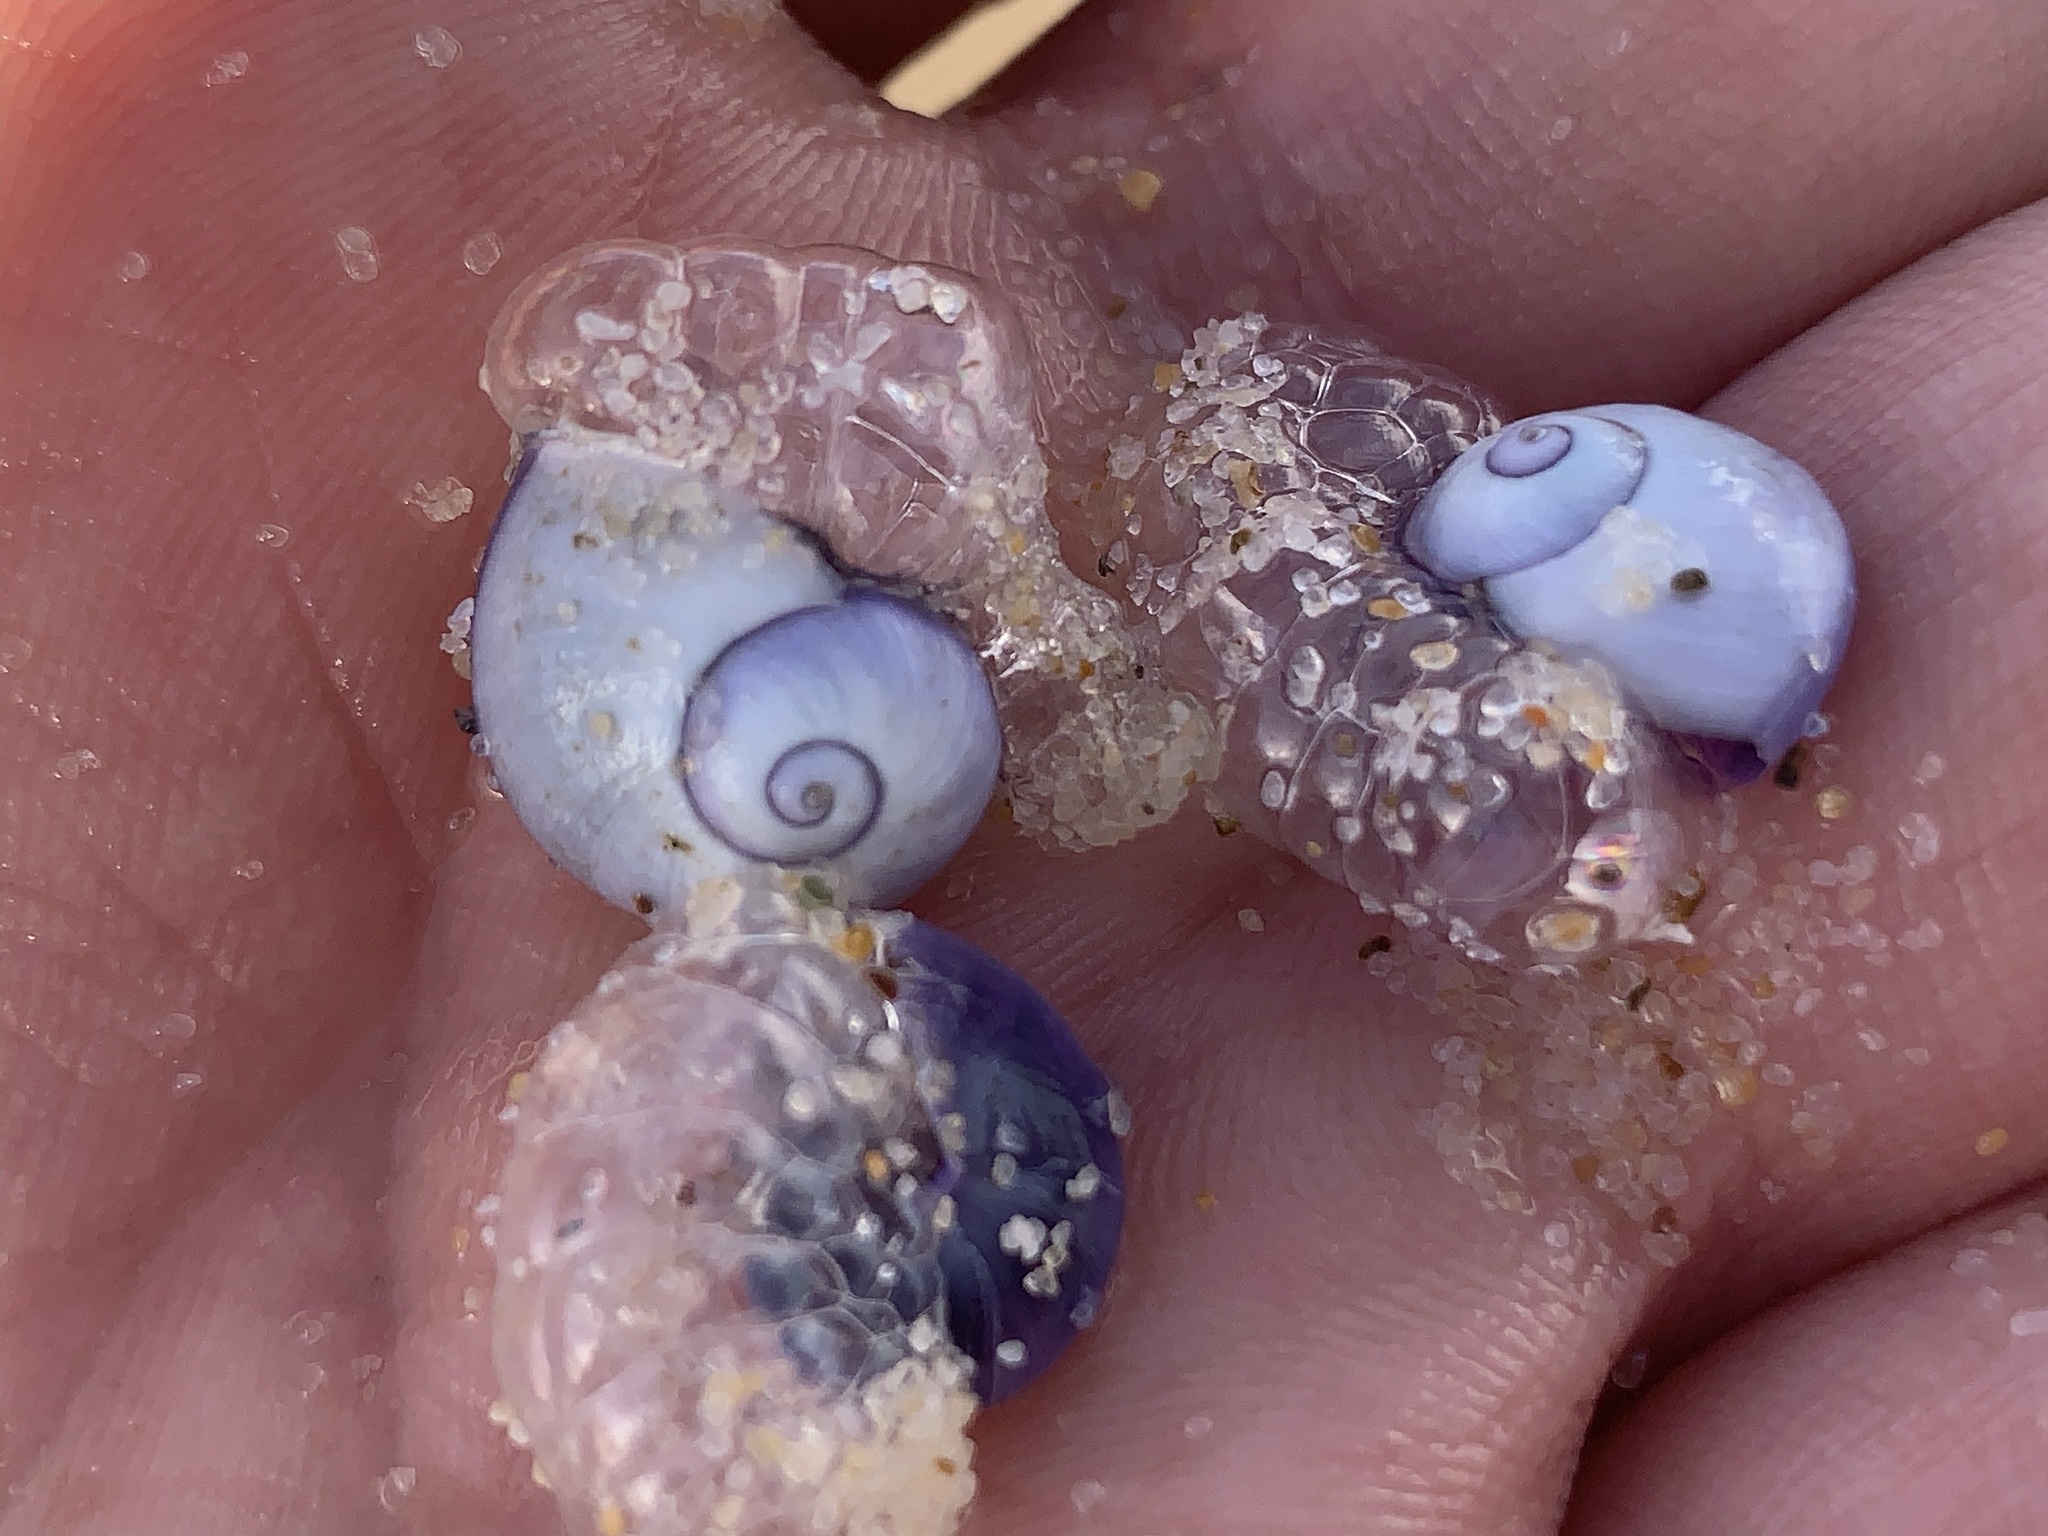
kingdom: Animalia
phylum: Mollusca
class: Gastropoda
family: Epitoniidae
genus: Janthina
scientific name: Janthina janthina
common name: Common janthina
